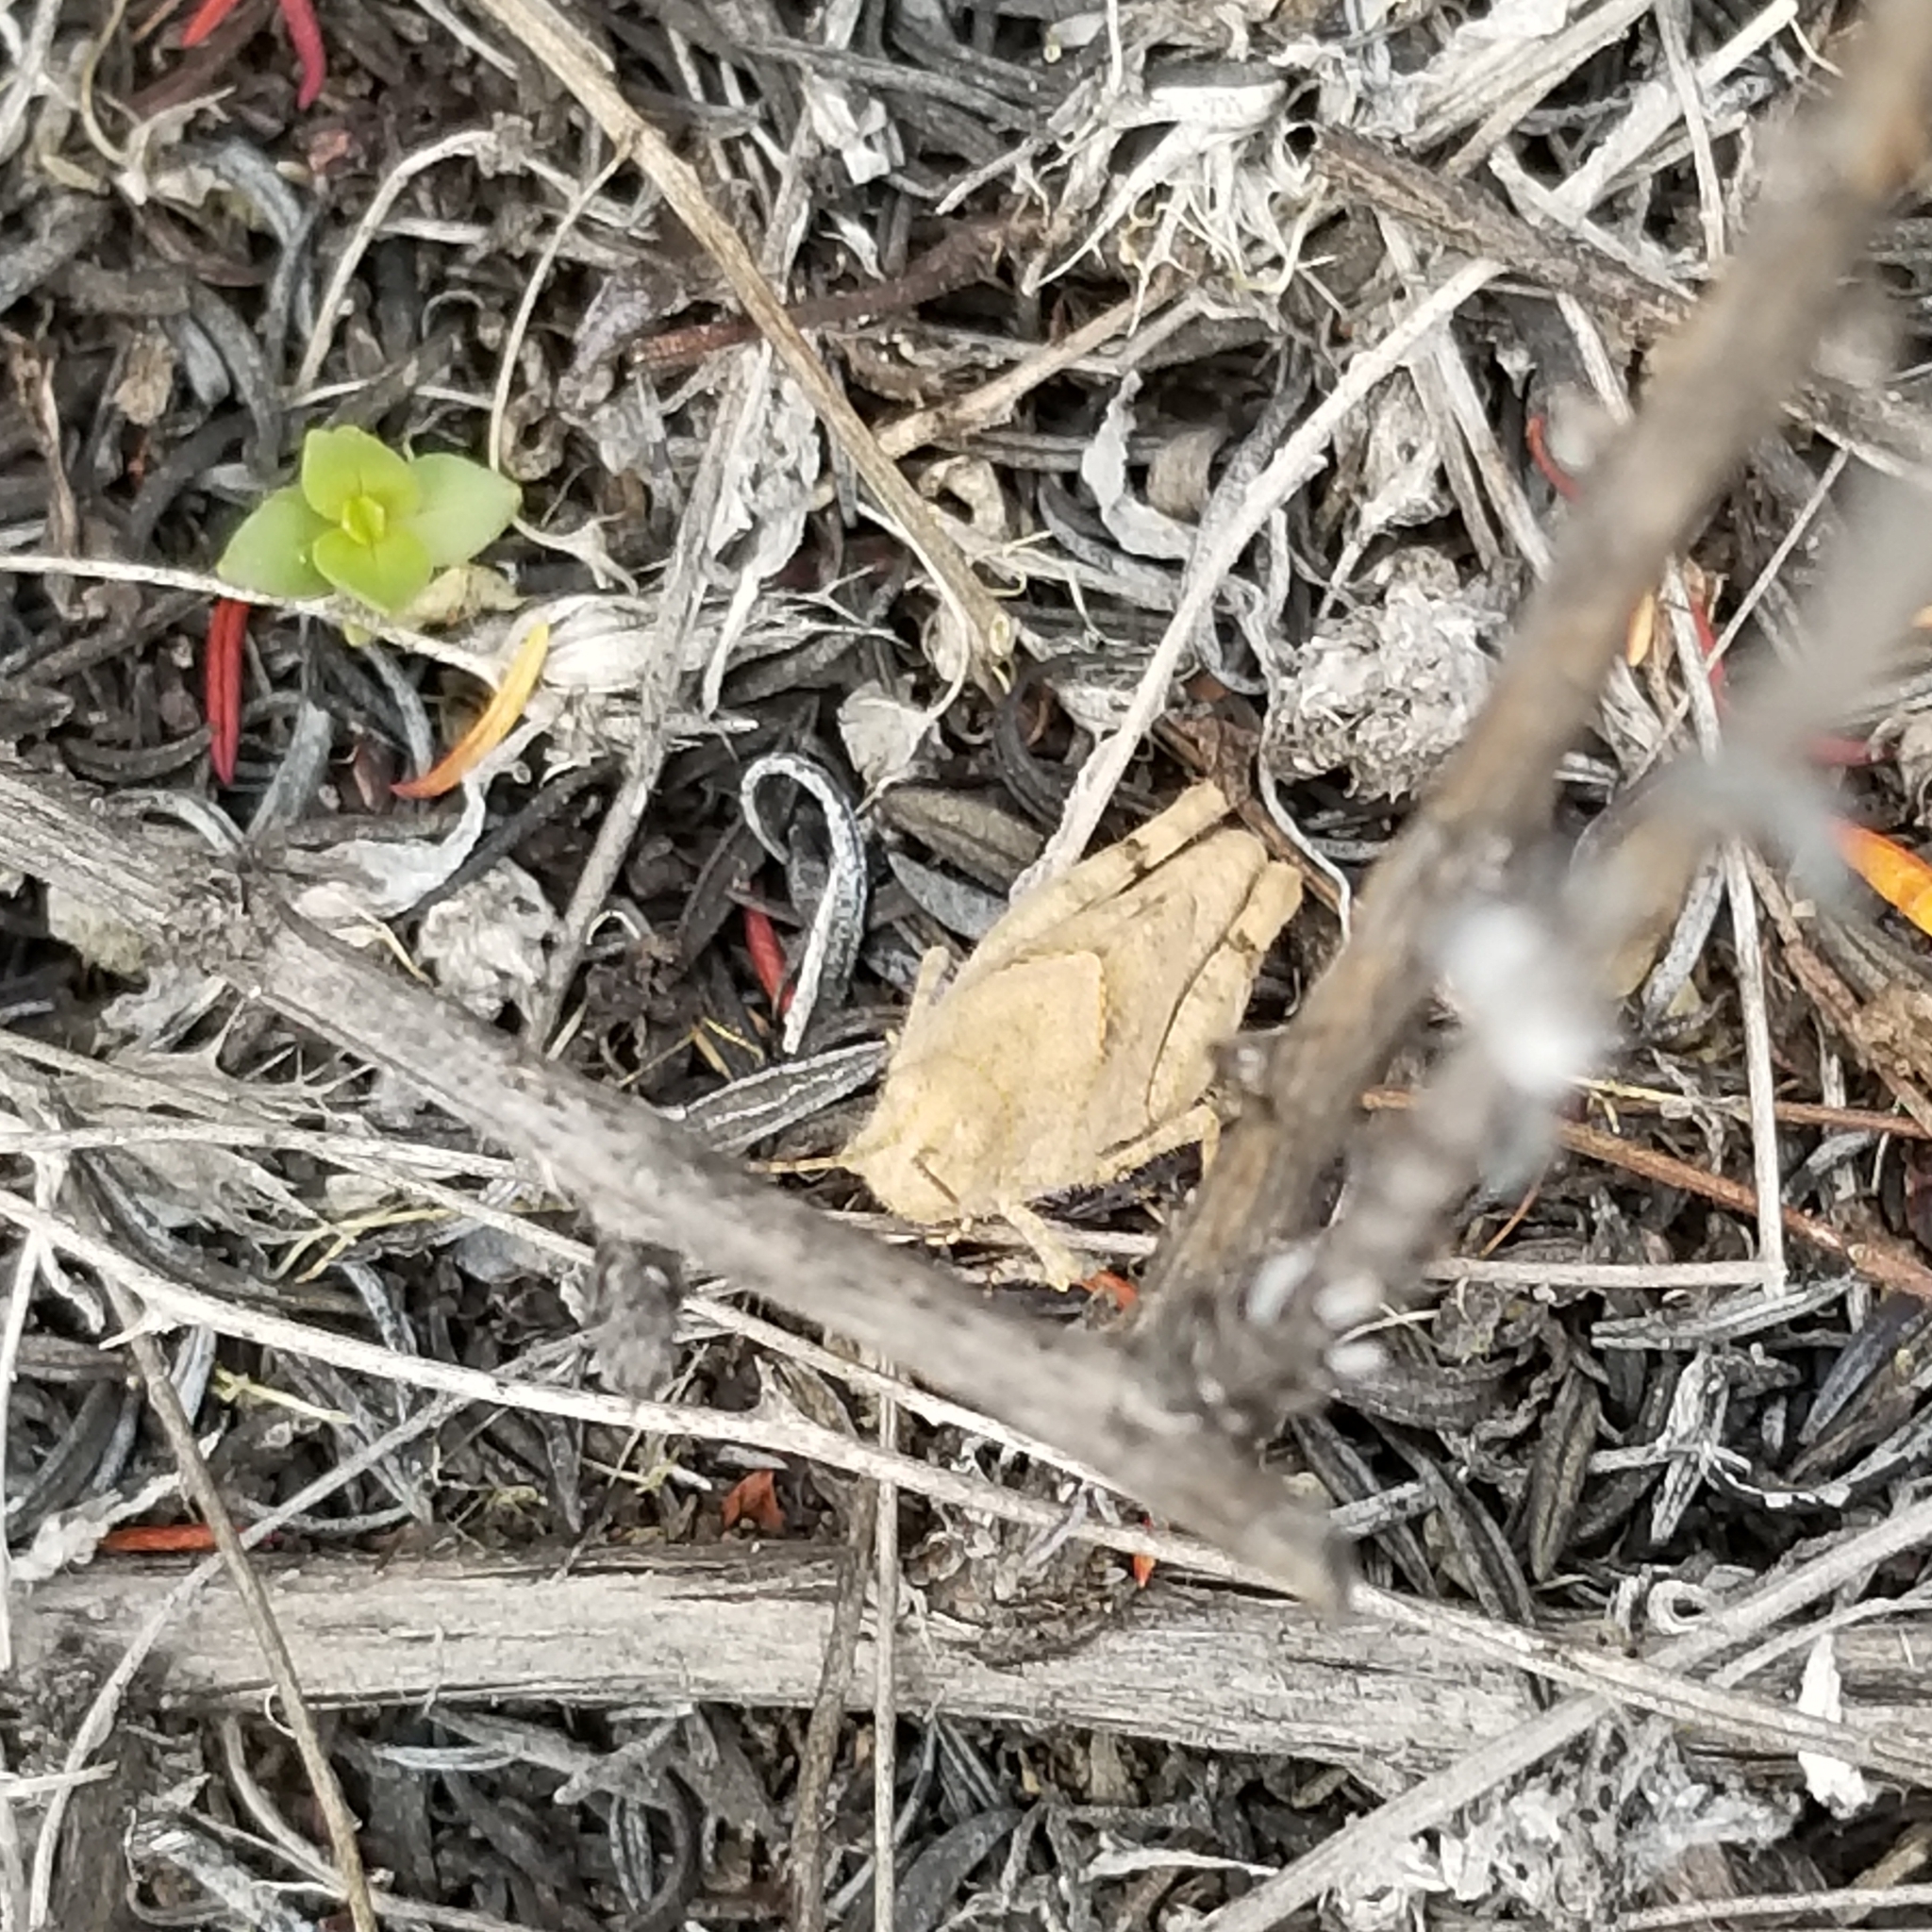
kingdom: Animalia
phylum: Arthropoda
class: Insecta
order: Orthoptera
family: Acrididae
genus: Trimerotropis
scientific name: Trimerotropis pallidipennis
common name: Pallid-winged grasshopper
